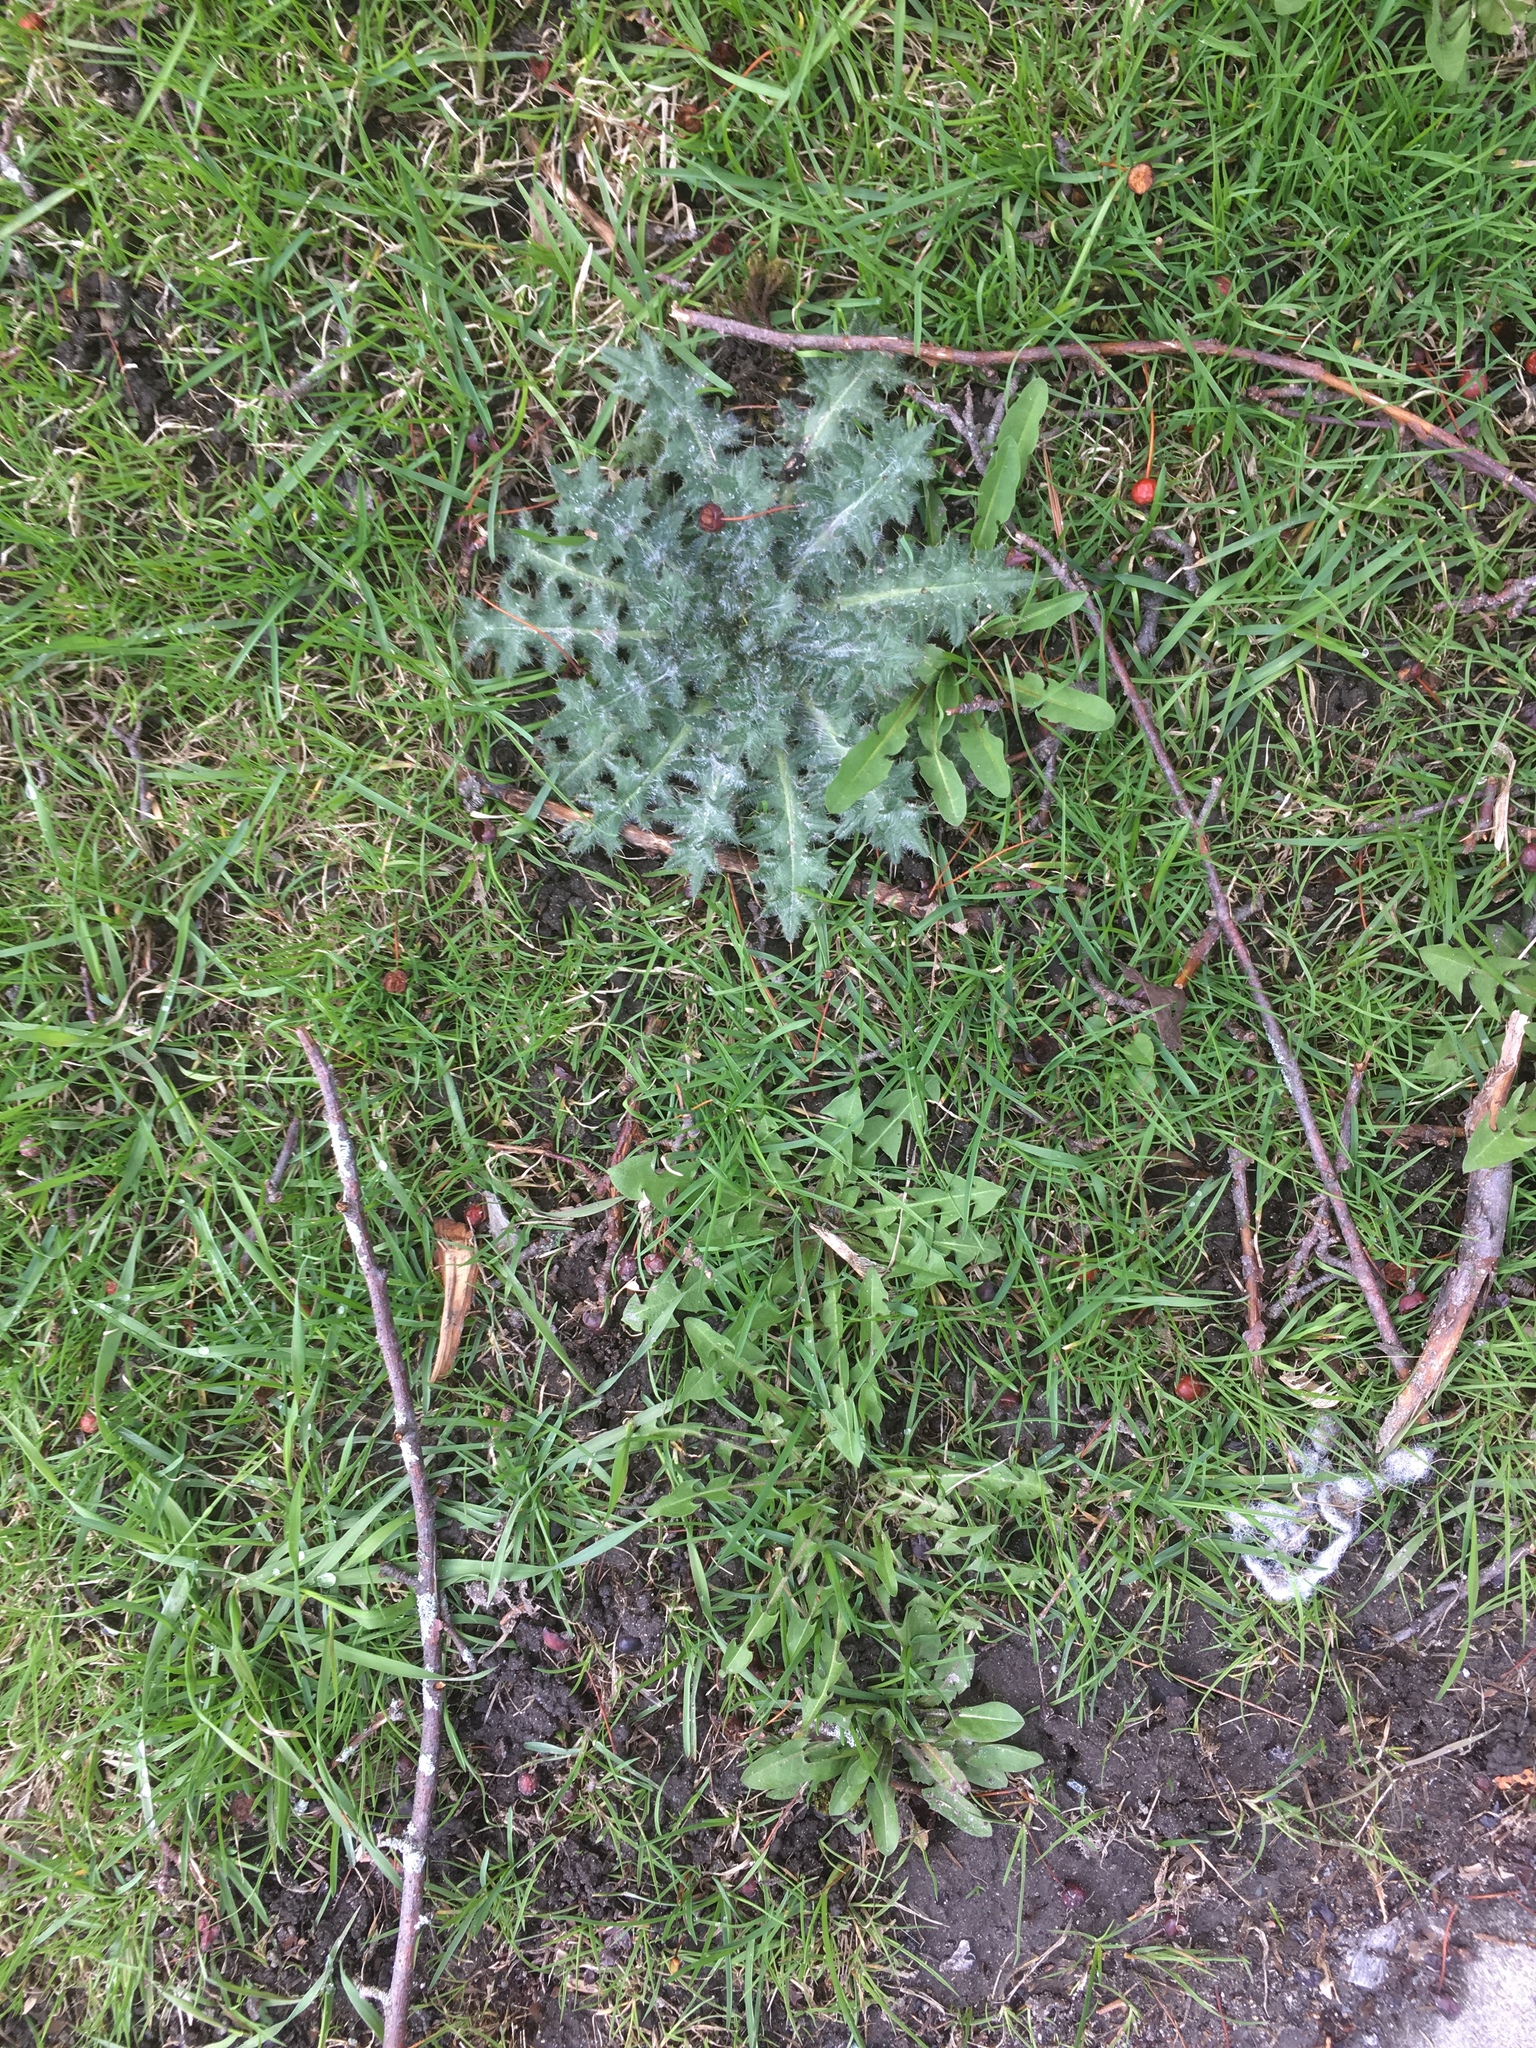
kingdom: Plantae
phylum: Tracheophyta
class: Magnoliopsida
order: Asterales
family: Asteraceae
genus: Cirsium
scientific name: Cirsium vulgare
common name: Bull thistle
